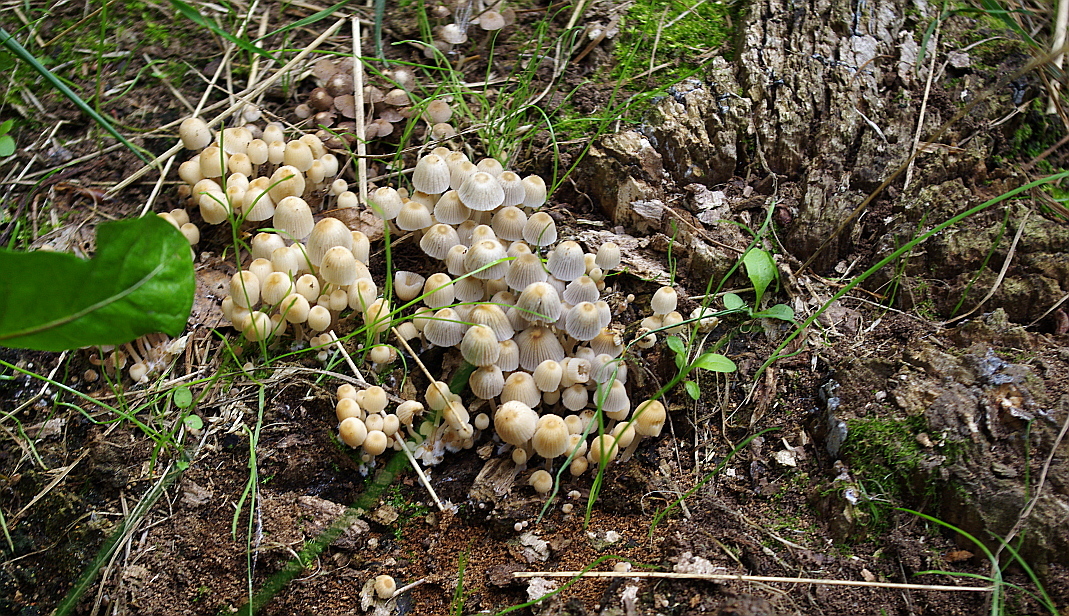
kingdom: Fungi
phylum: Basidiomycota
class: Agaricomycetes
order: Agaricales
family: Psathyrellaceae
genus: Coprinellus
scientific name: Coprinellus disseminatus
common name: Fairies' bonnets
